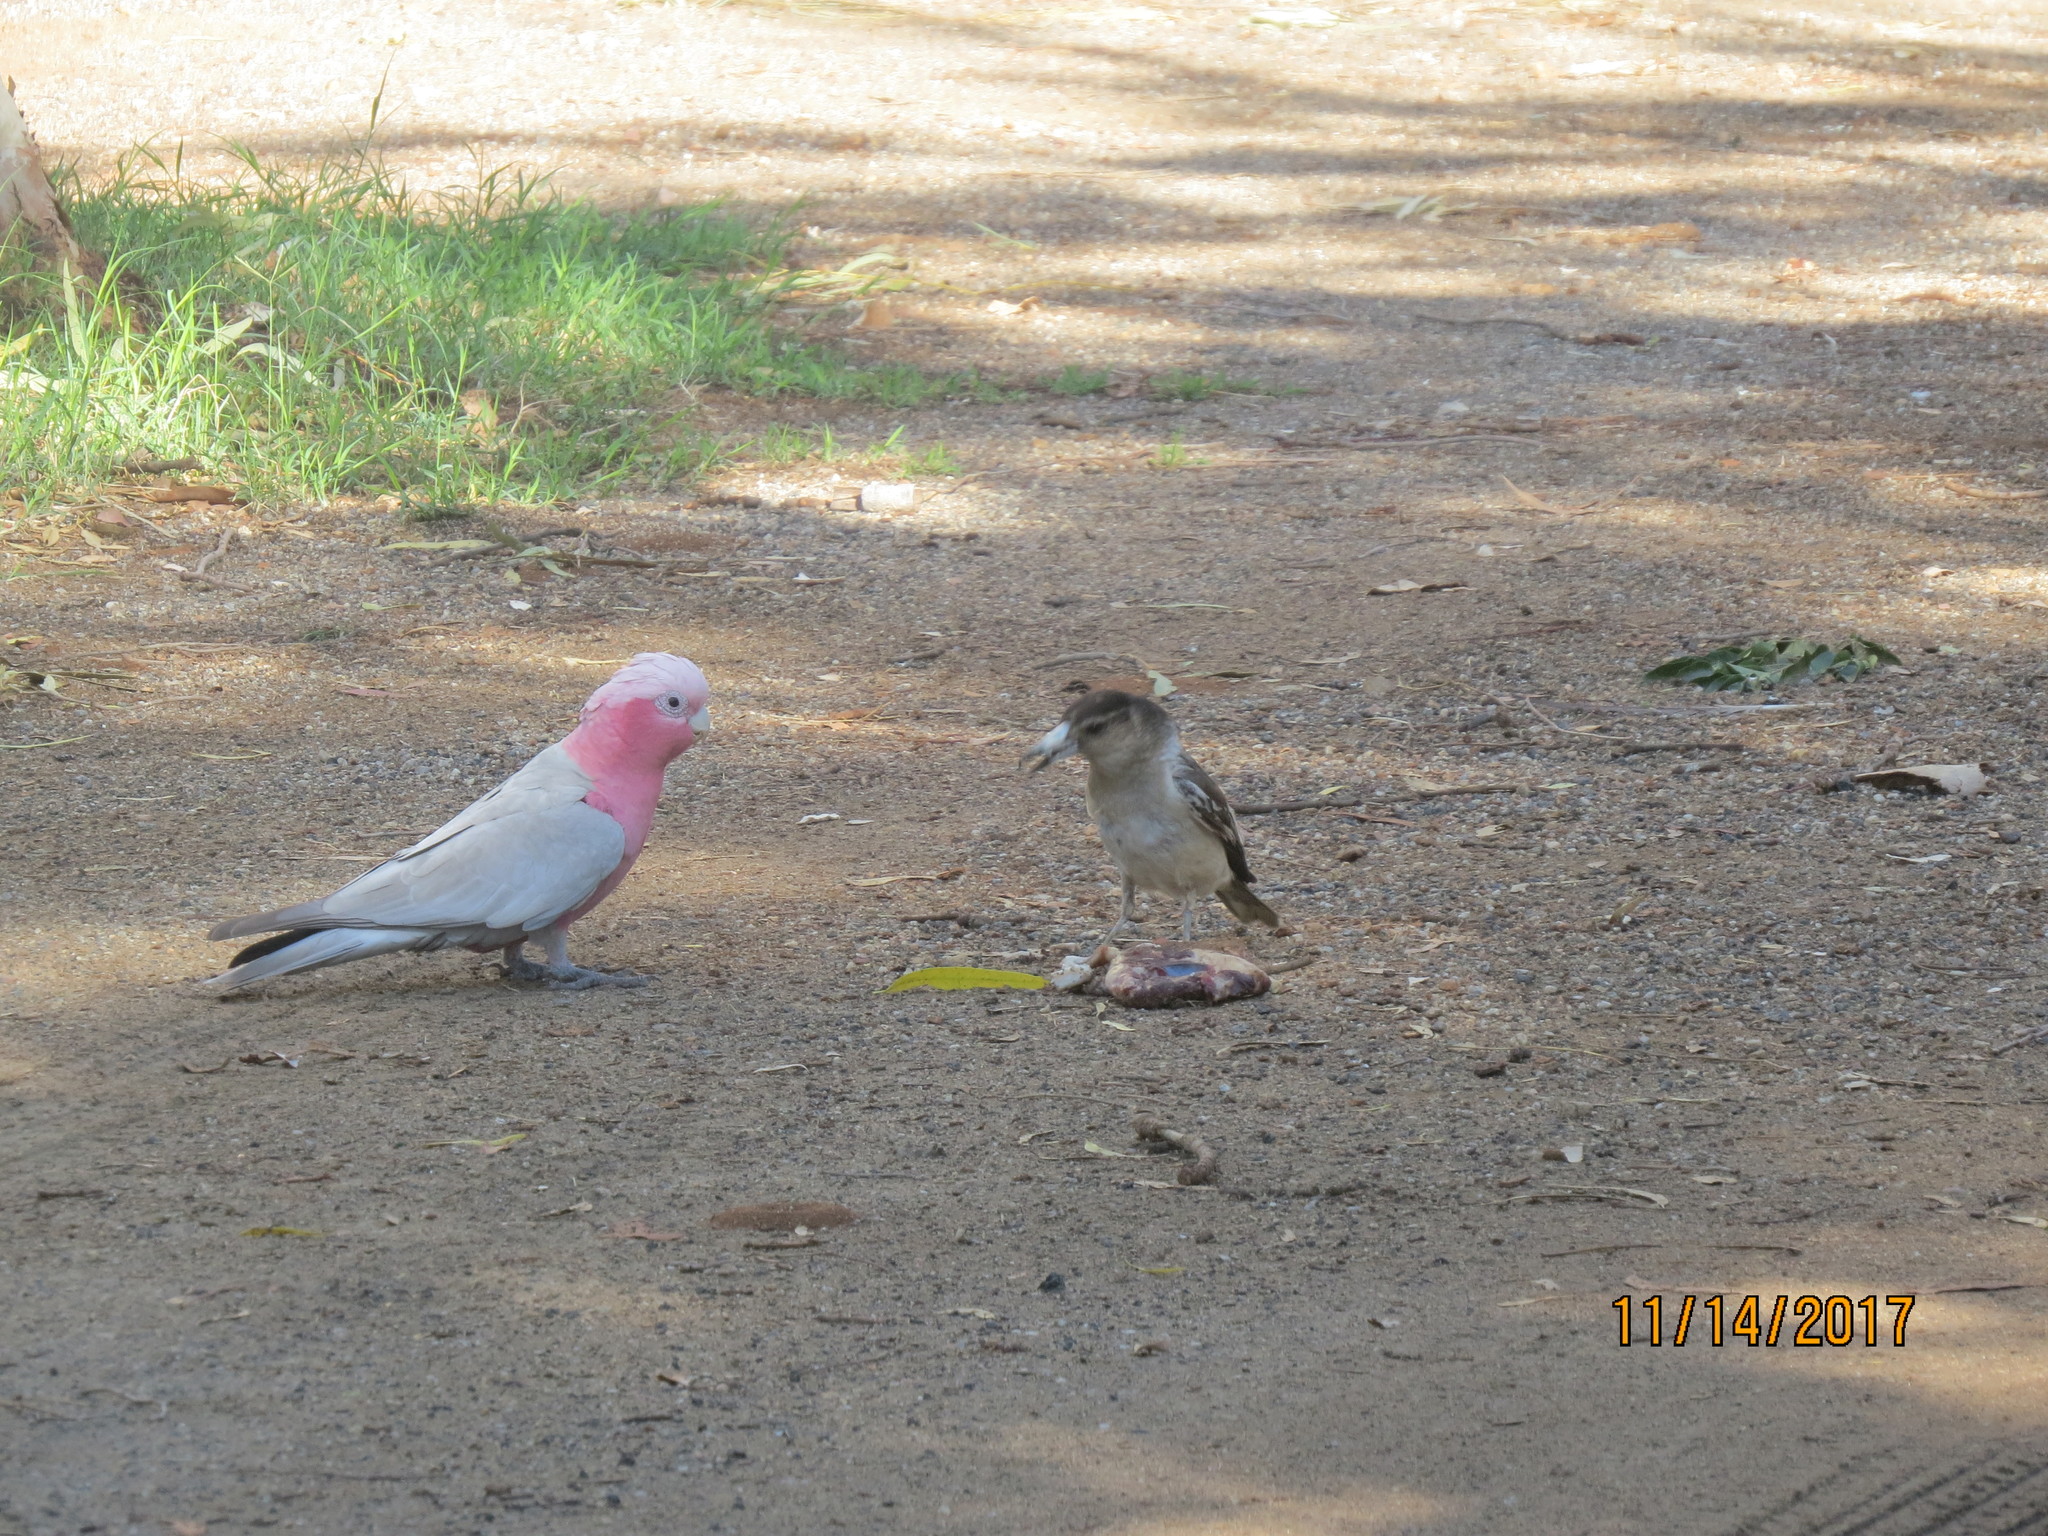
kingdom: Animalia
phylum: Chordata
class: Aves
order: Psittaciformes
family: Psittacidae
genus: Eolophus
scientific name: Eolophus roseicapilla
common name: Galah
